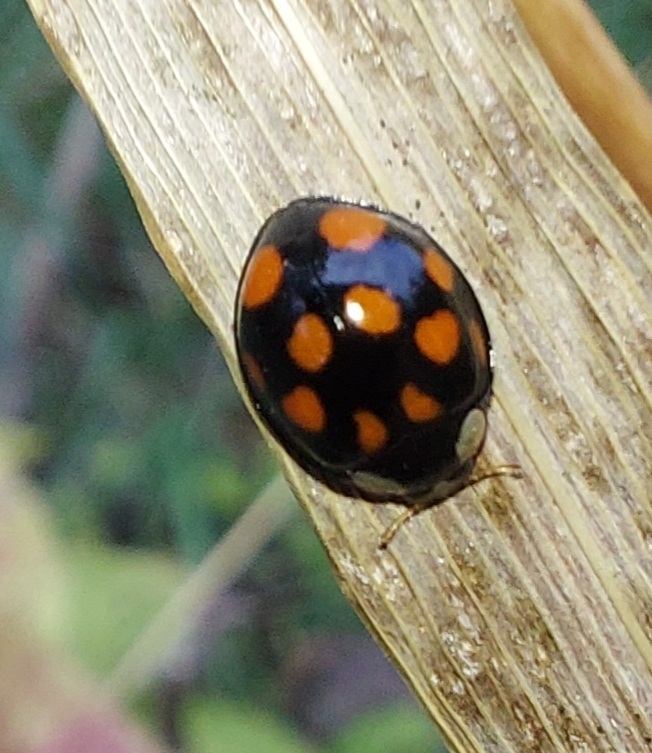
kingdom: Animalia
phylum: Arthropoda
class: Insecta
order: Coleoptera
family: Coccinellidae
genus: Harmonia
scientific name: Harmonia axyridis
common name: Harlequin ladybird
